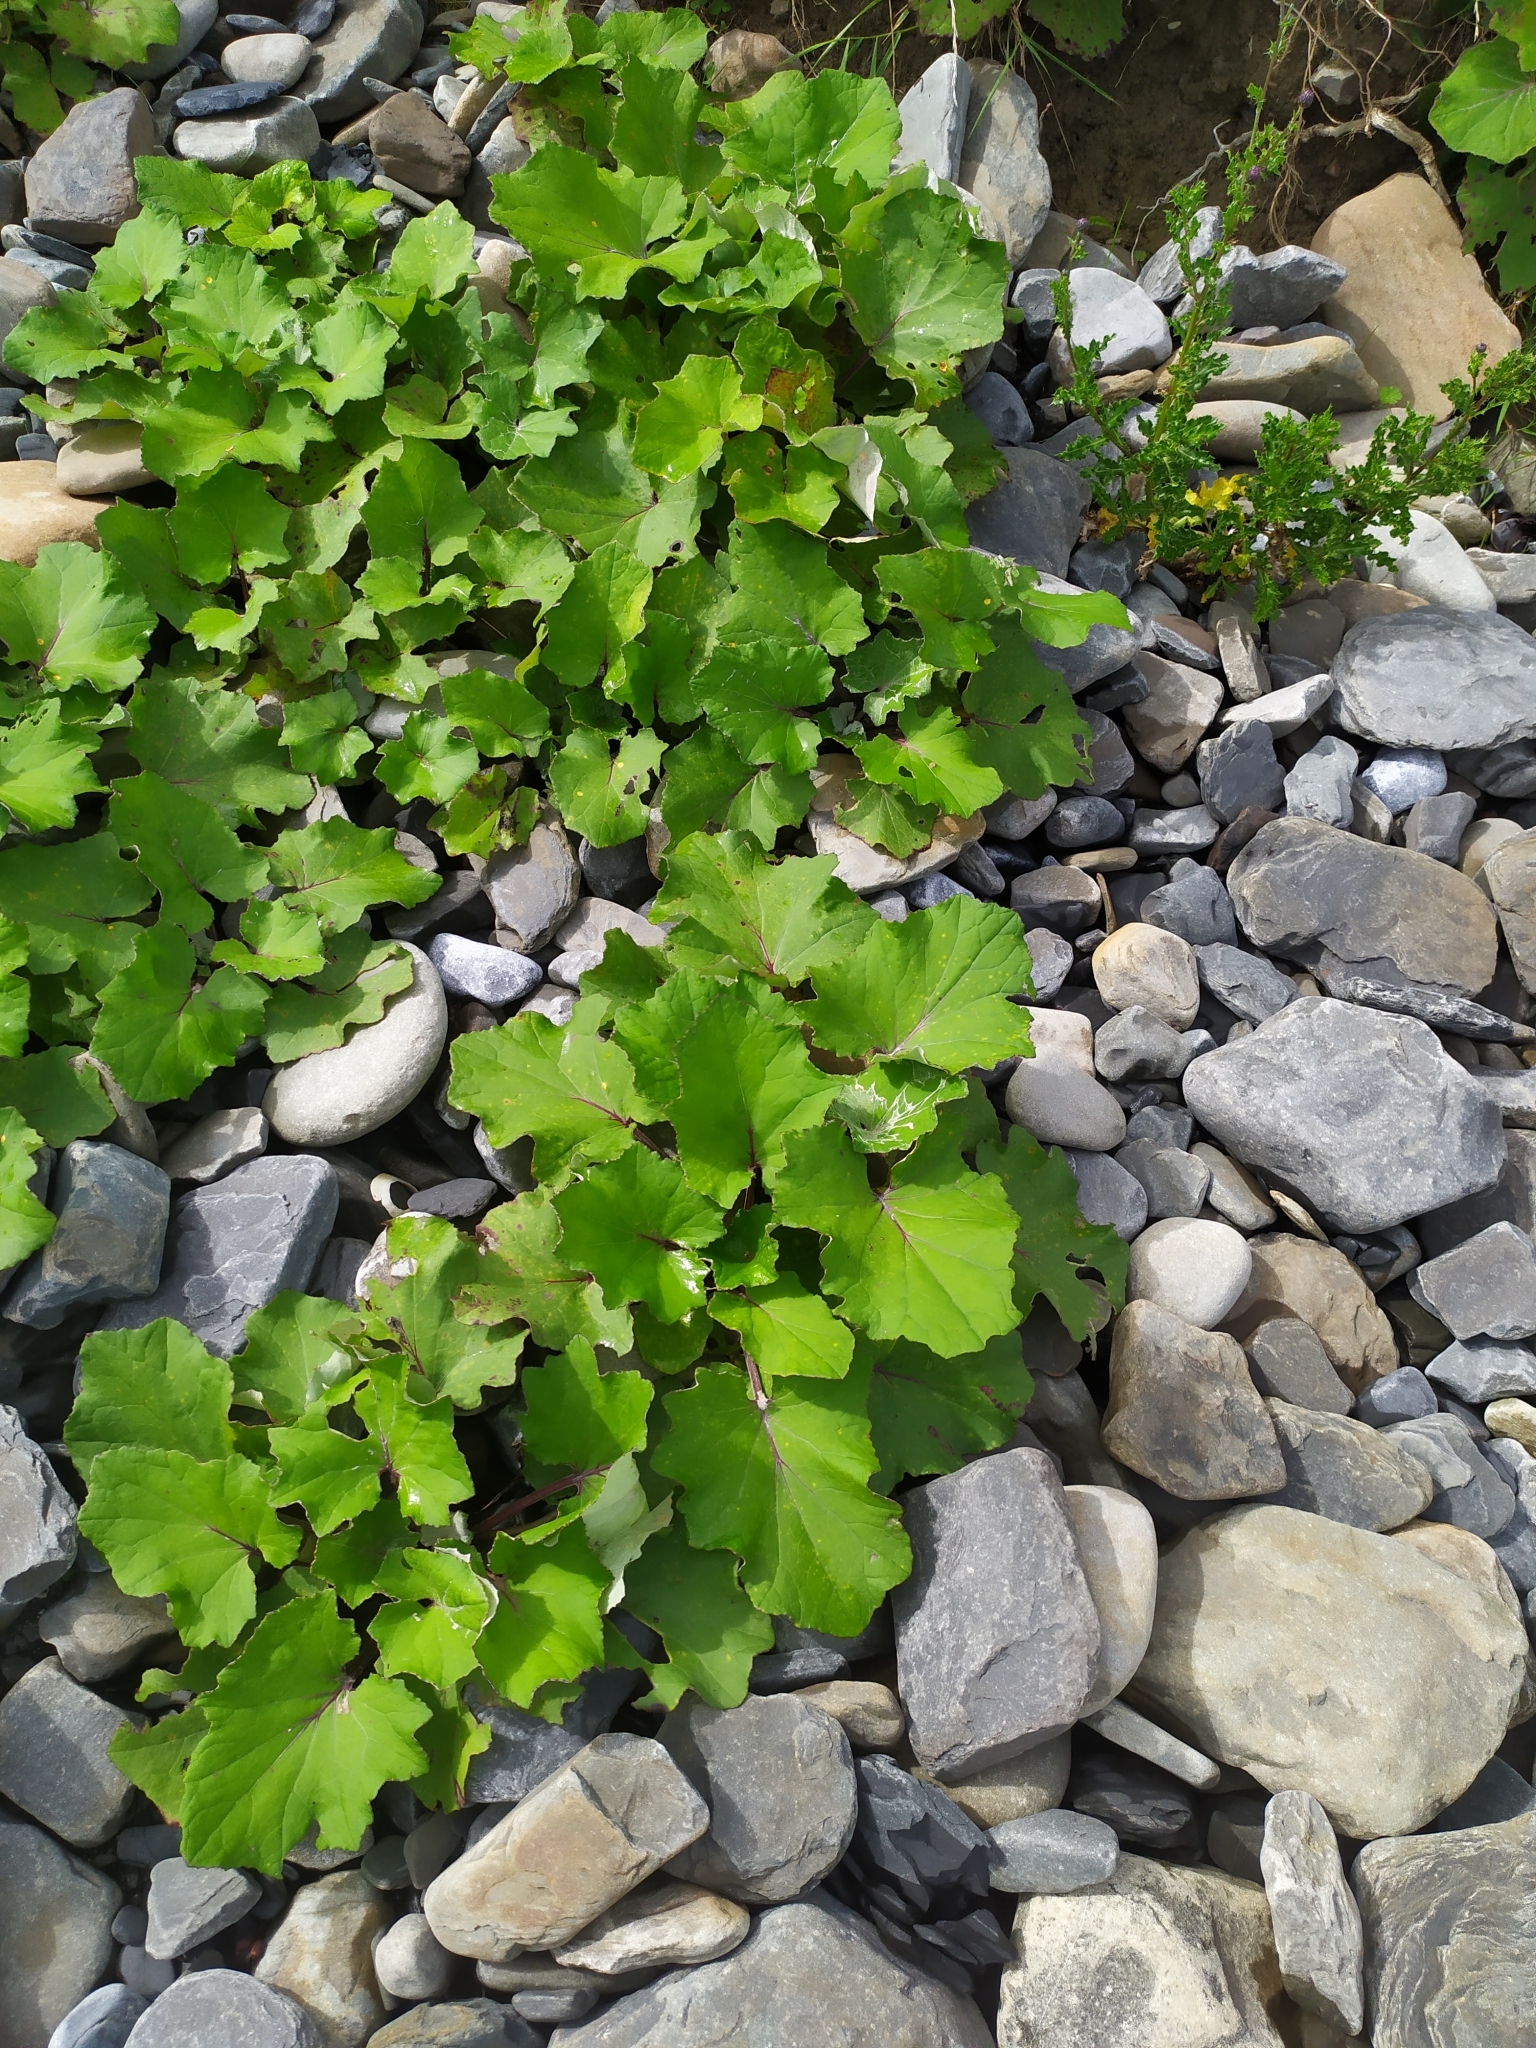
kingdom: Plantae
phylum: Tracheophyta
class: Magnoliopsida
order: Asterales
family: Asteraceae
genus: Tussilago
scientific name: Tussilago farfara
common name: Coltsfoot
